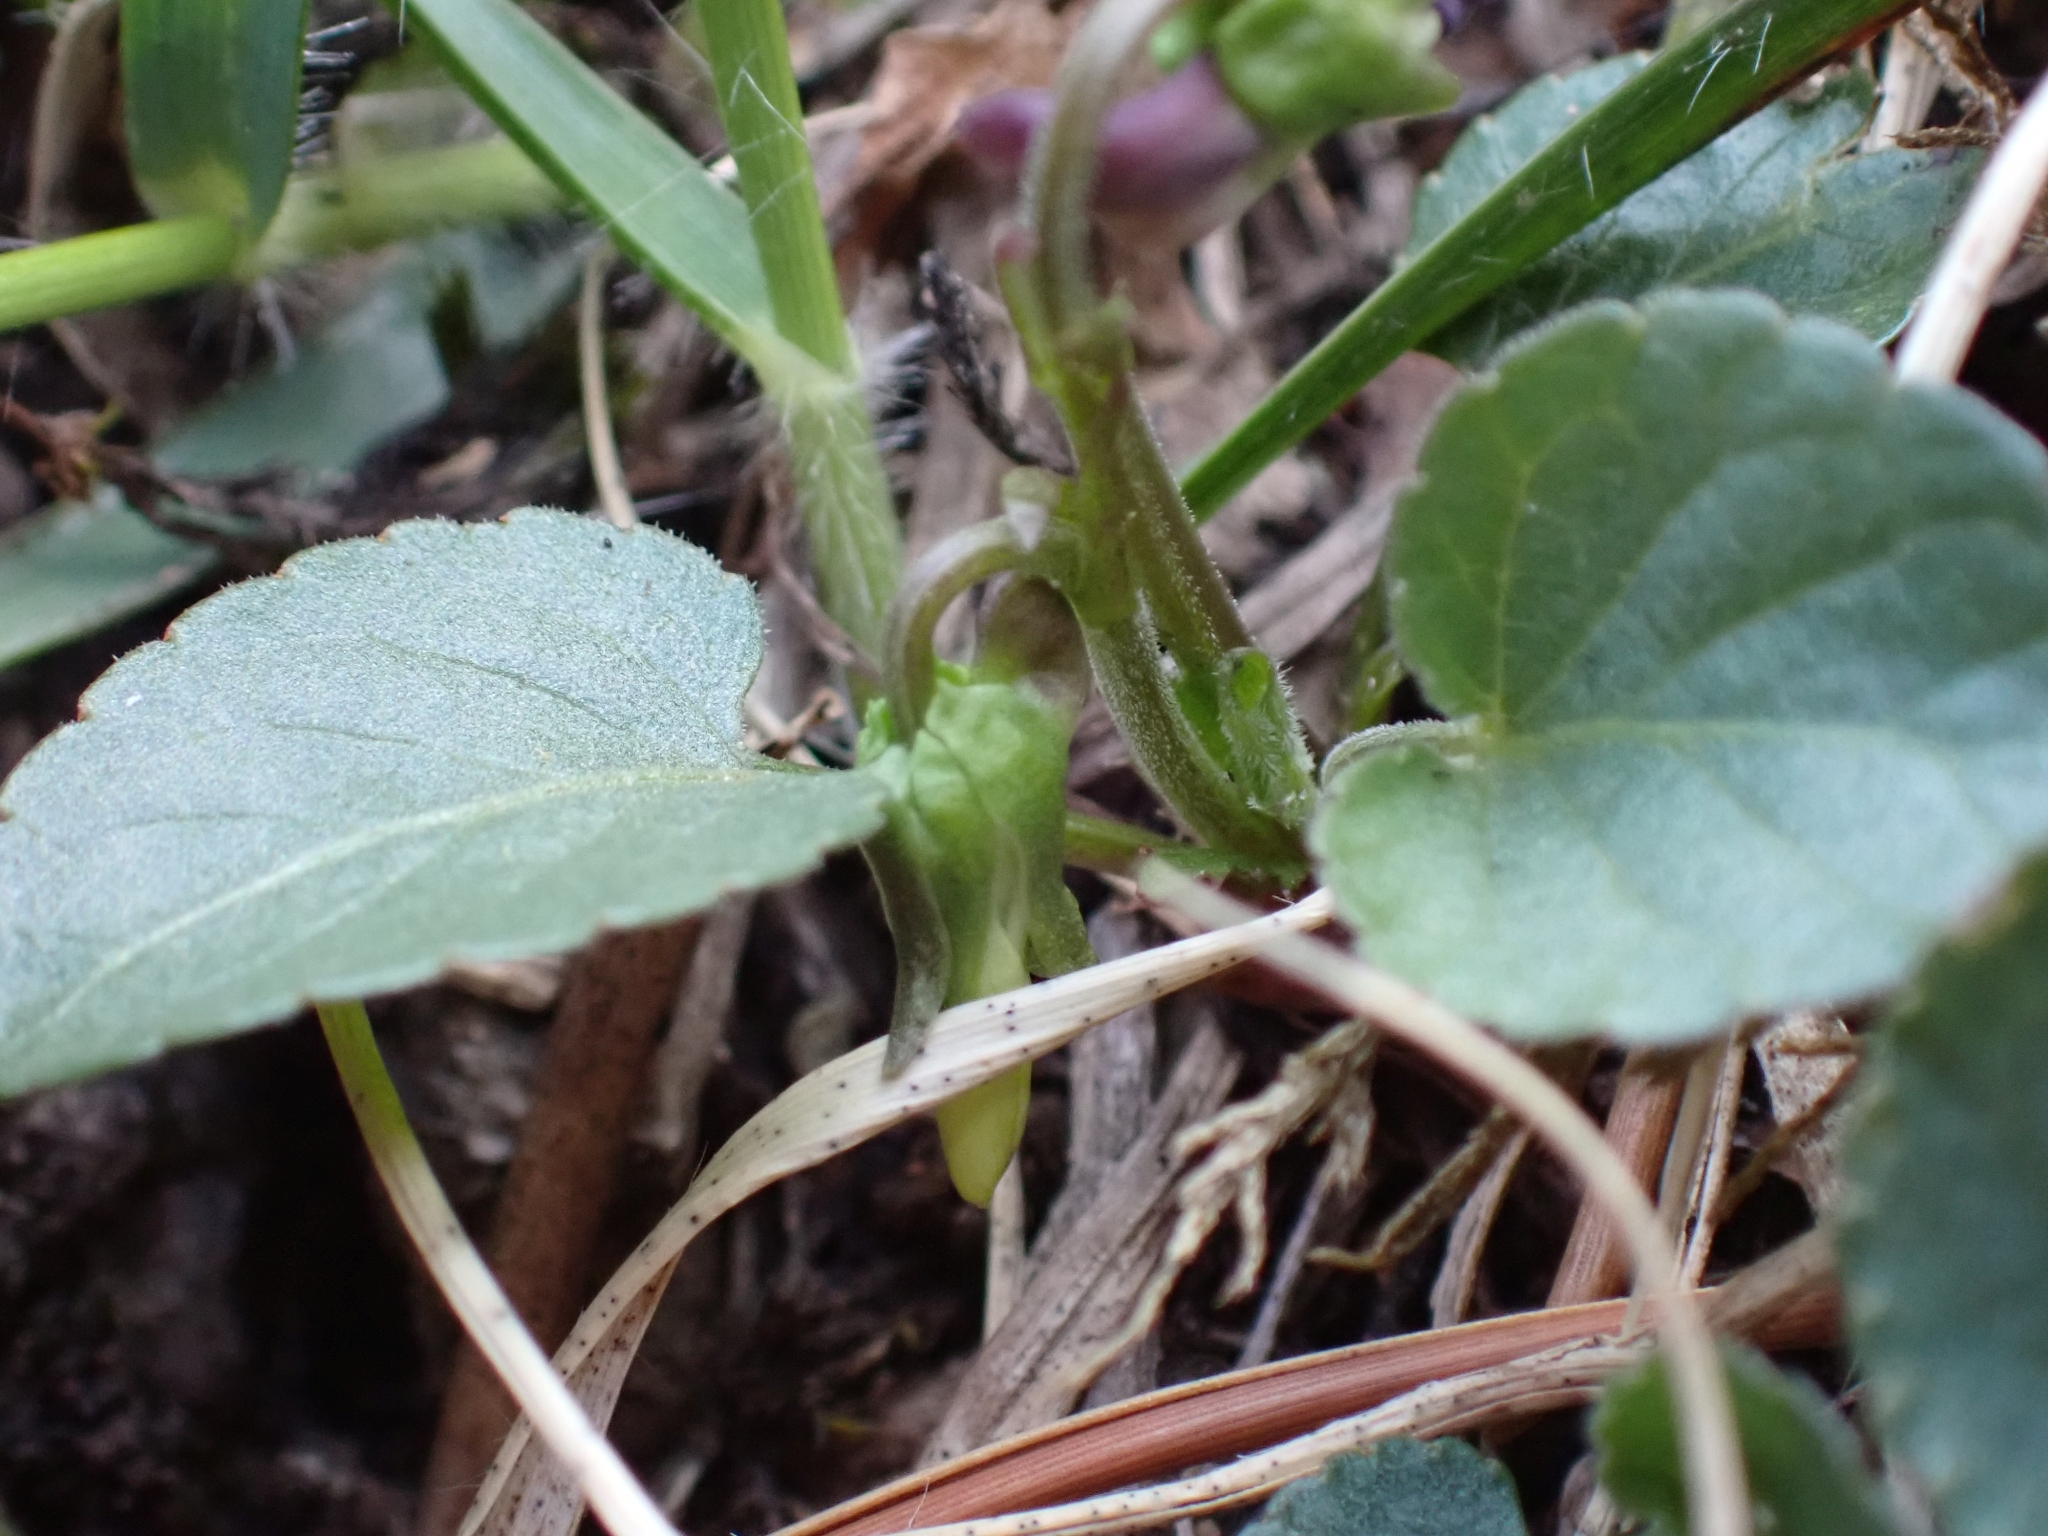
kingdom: Plantae
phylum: Tracheophyta
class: Magnoliopsida
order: Malpighiales
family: Violaceae
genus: Viola
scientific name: Viola adunca
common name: Sand violet
